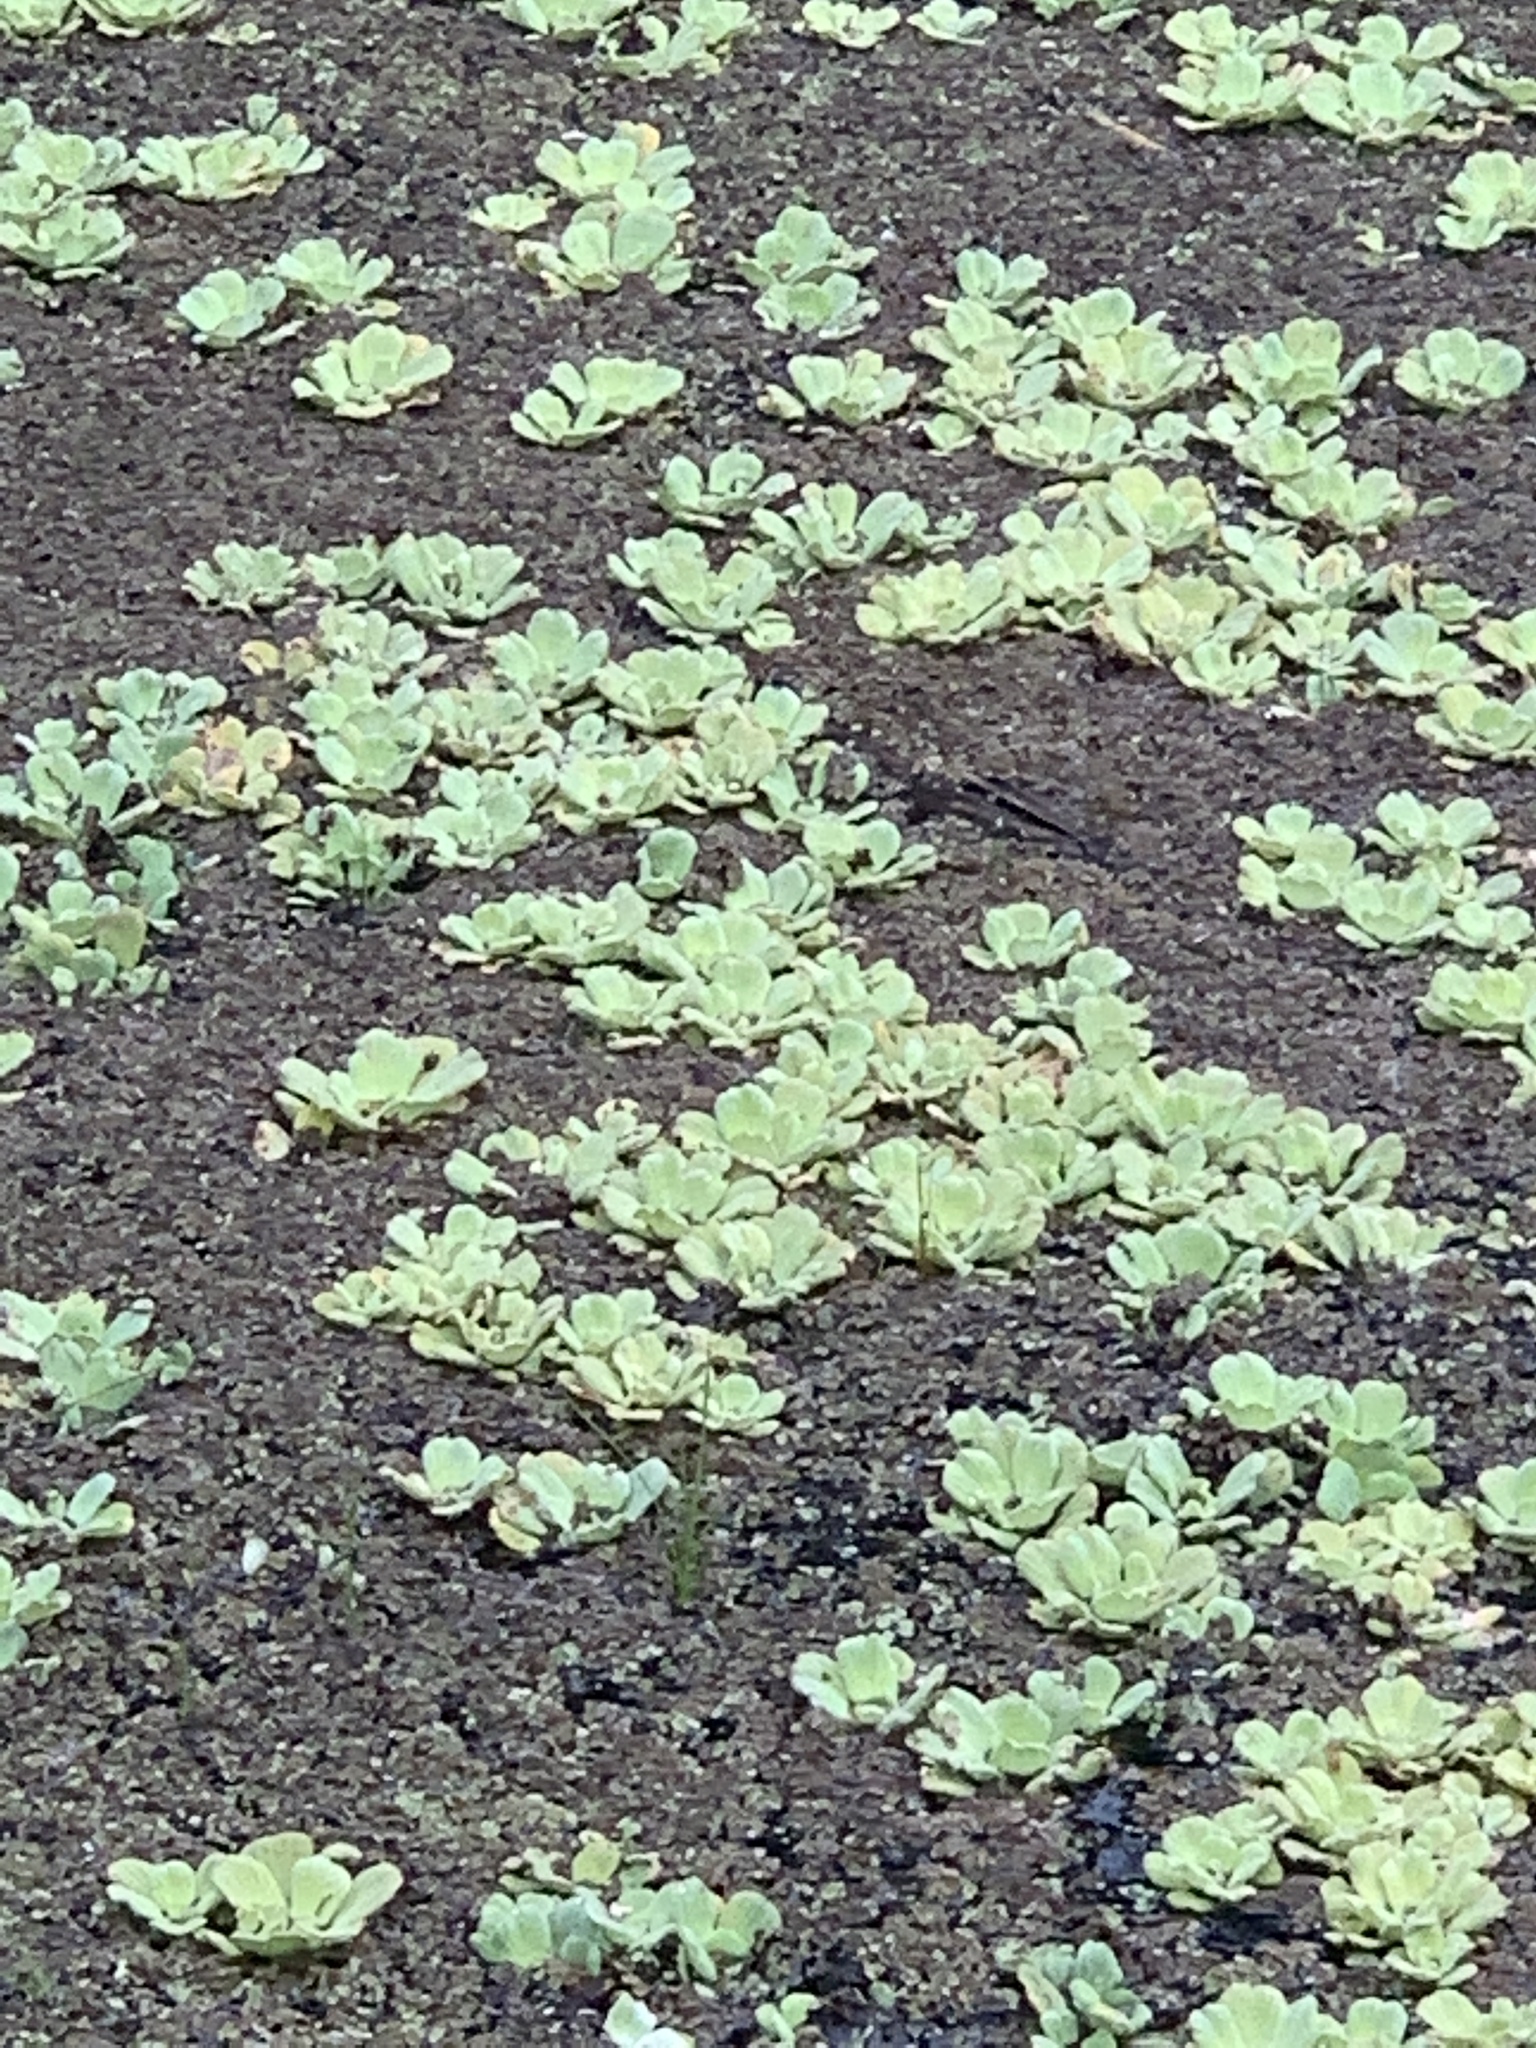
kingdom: Plantae
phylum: Tracheophyta
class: Liliopsida
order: Alismatales
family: Araceae
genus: Pistia
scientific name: Pistia stratiotes
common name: Water lettuce
